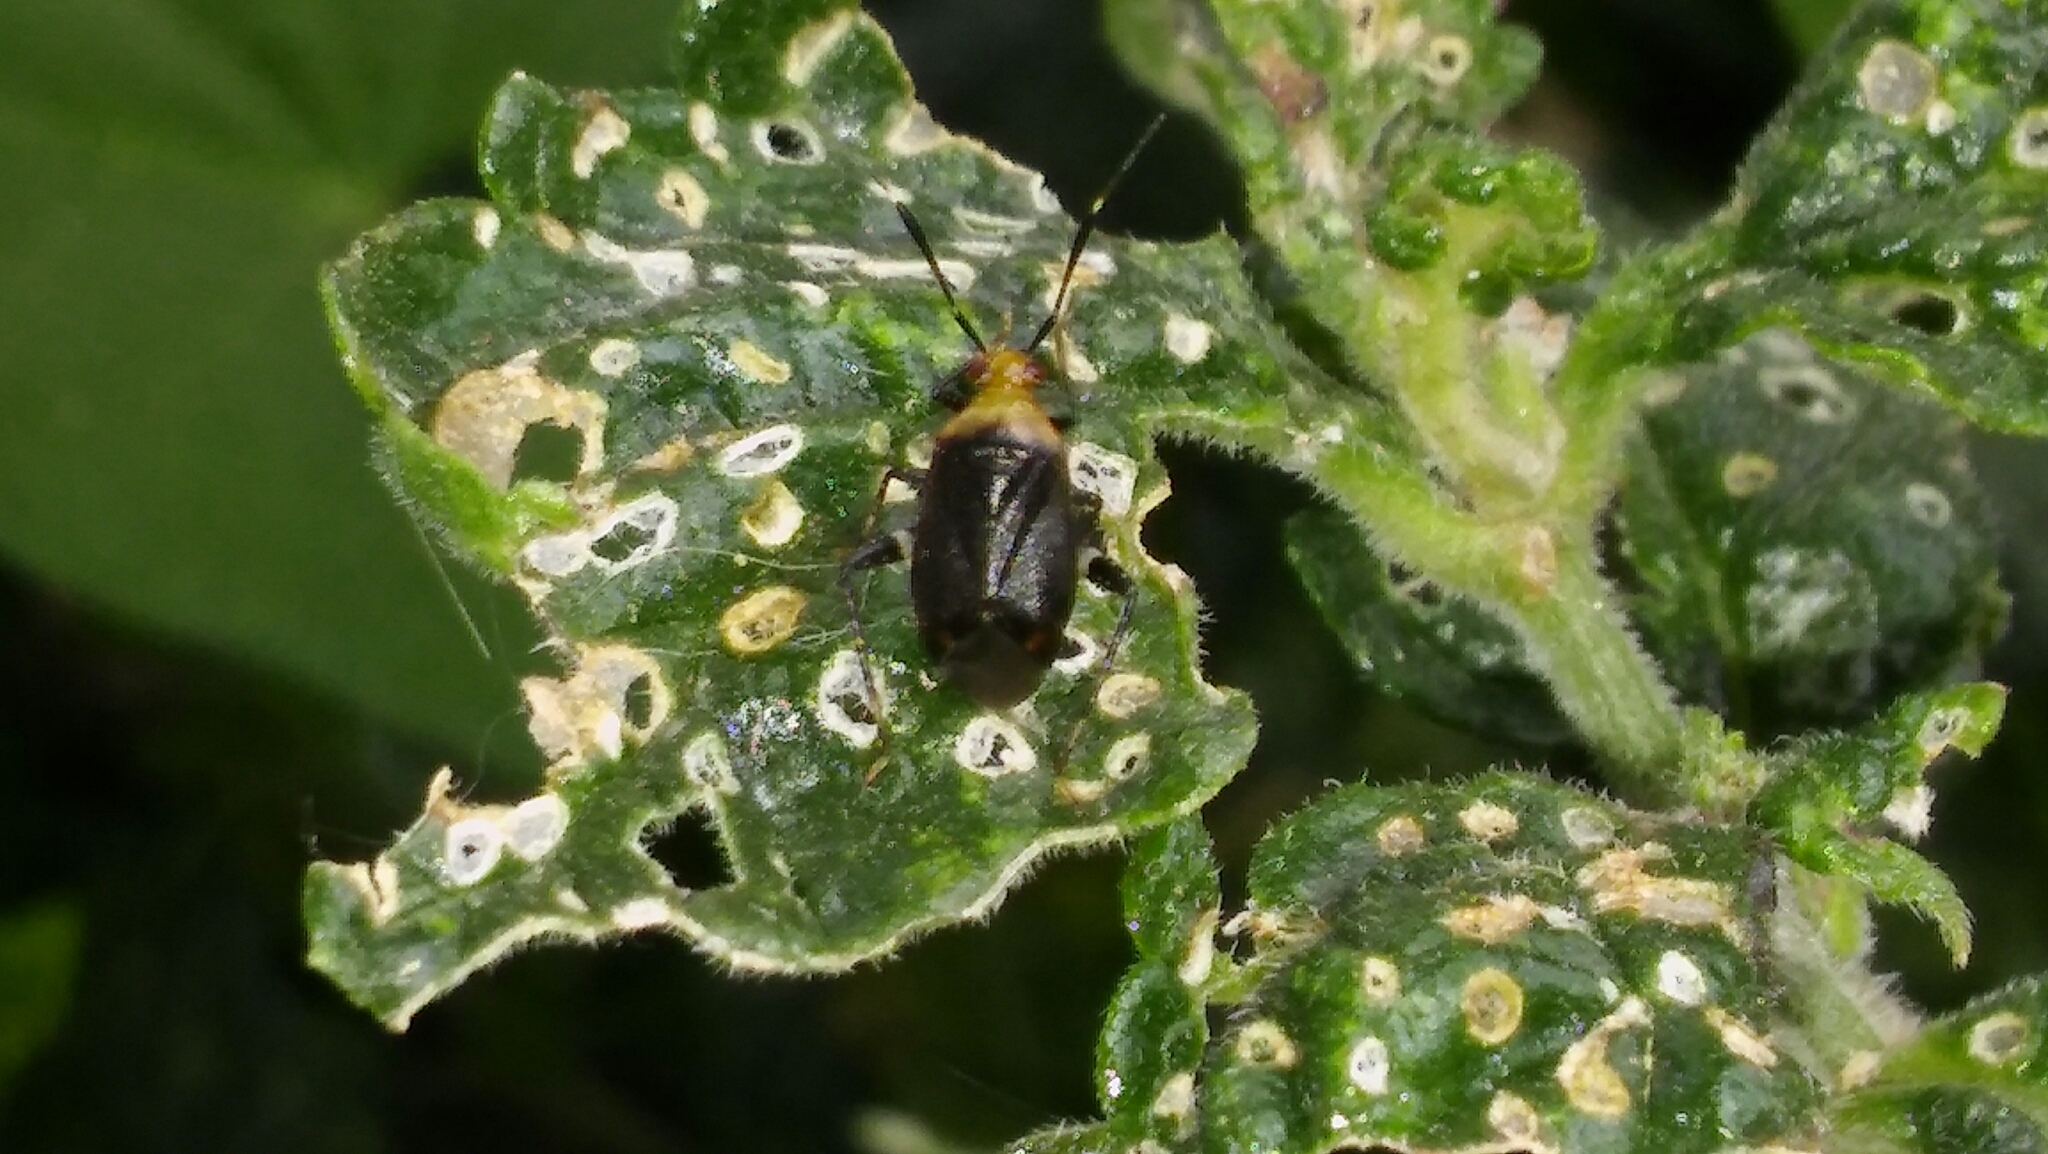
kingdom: Animalia
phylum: Arthropoda
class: Insecta
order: Hemiptera
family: Miridae
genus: Horciasinus
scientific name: Horciasinus argentinus
